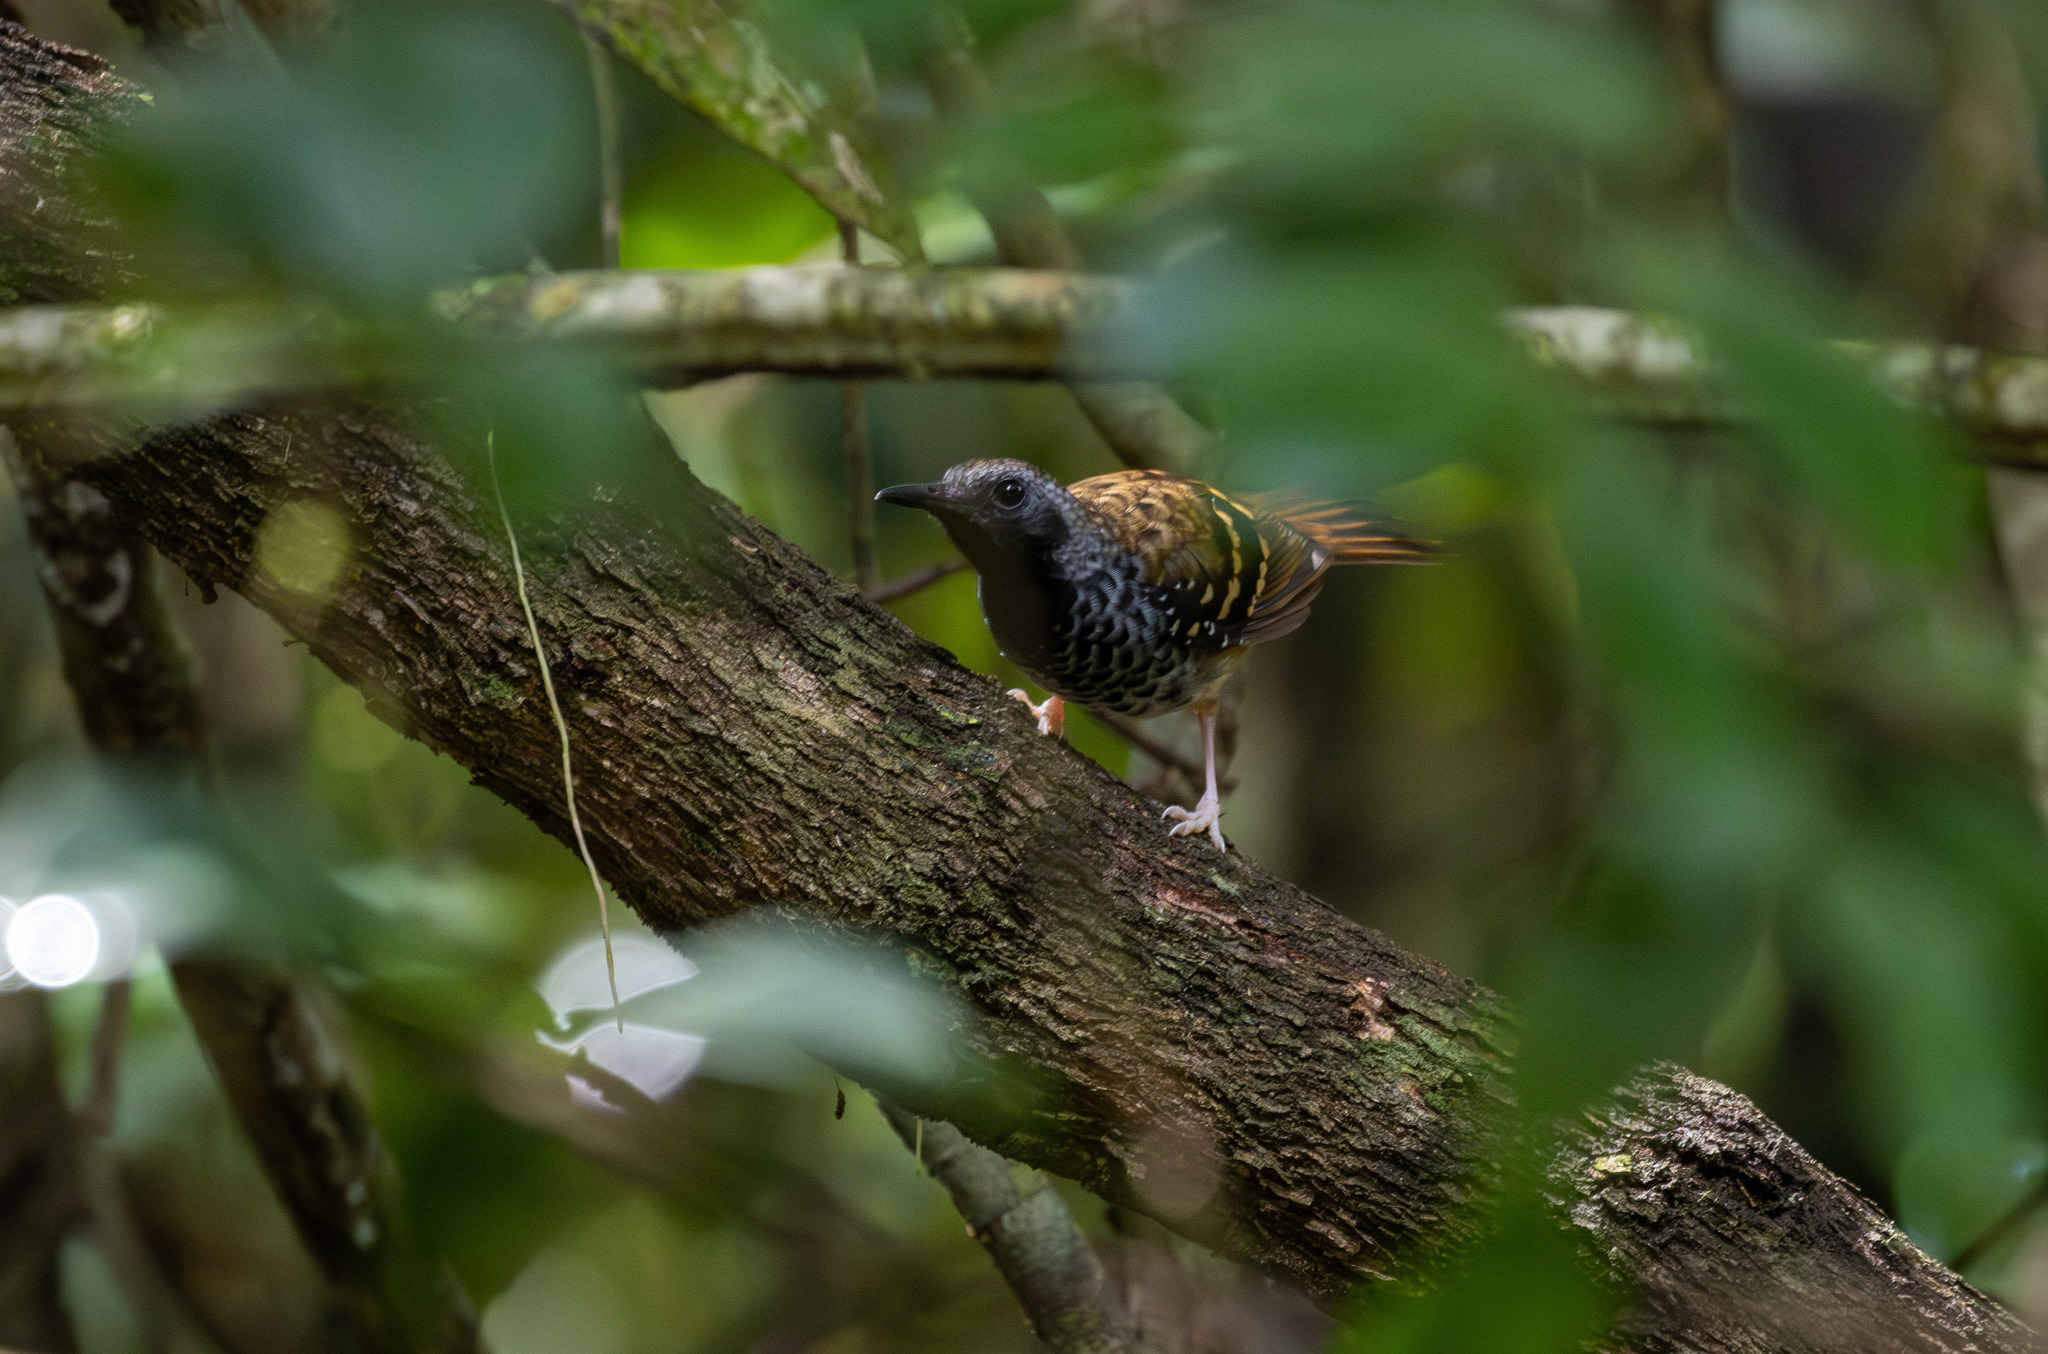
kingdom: Animalia
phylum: Chordata
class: Aves
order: Passeriformes
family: Thamnophilidae
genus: Myrmeciza
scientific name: Myrmeciza ruficauda
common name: Scalloped antbird
